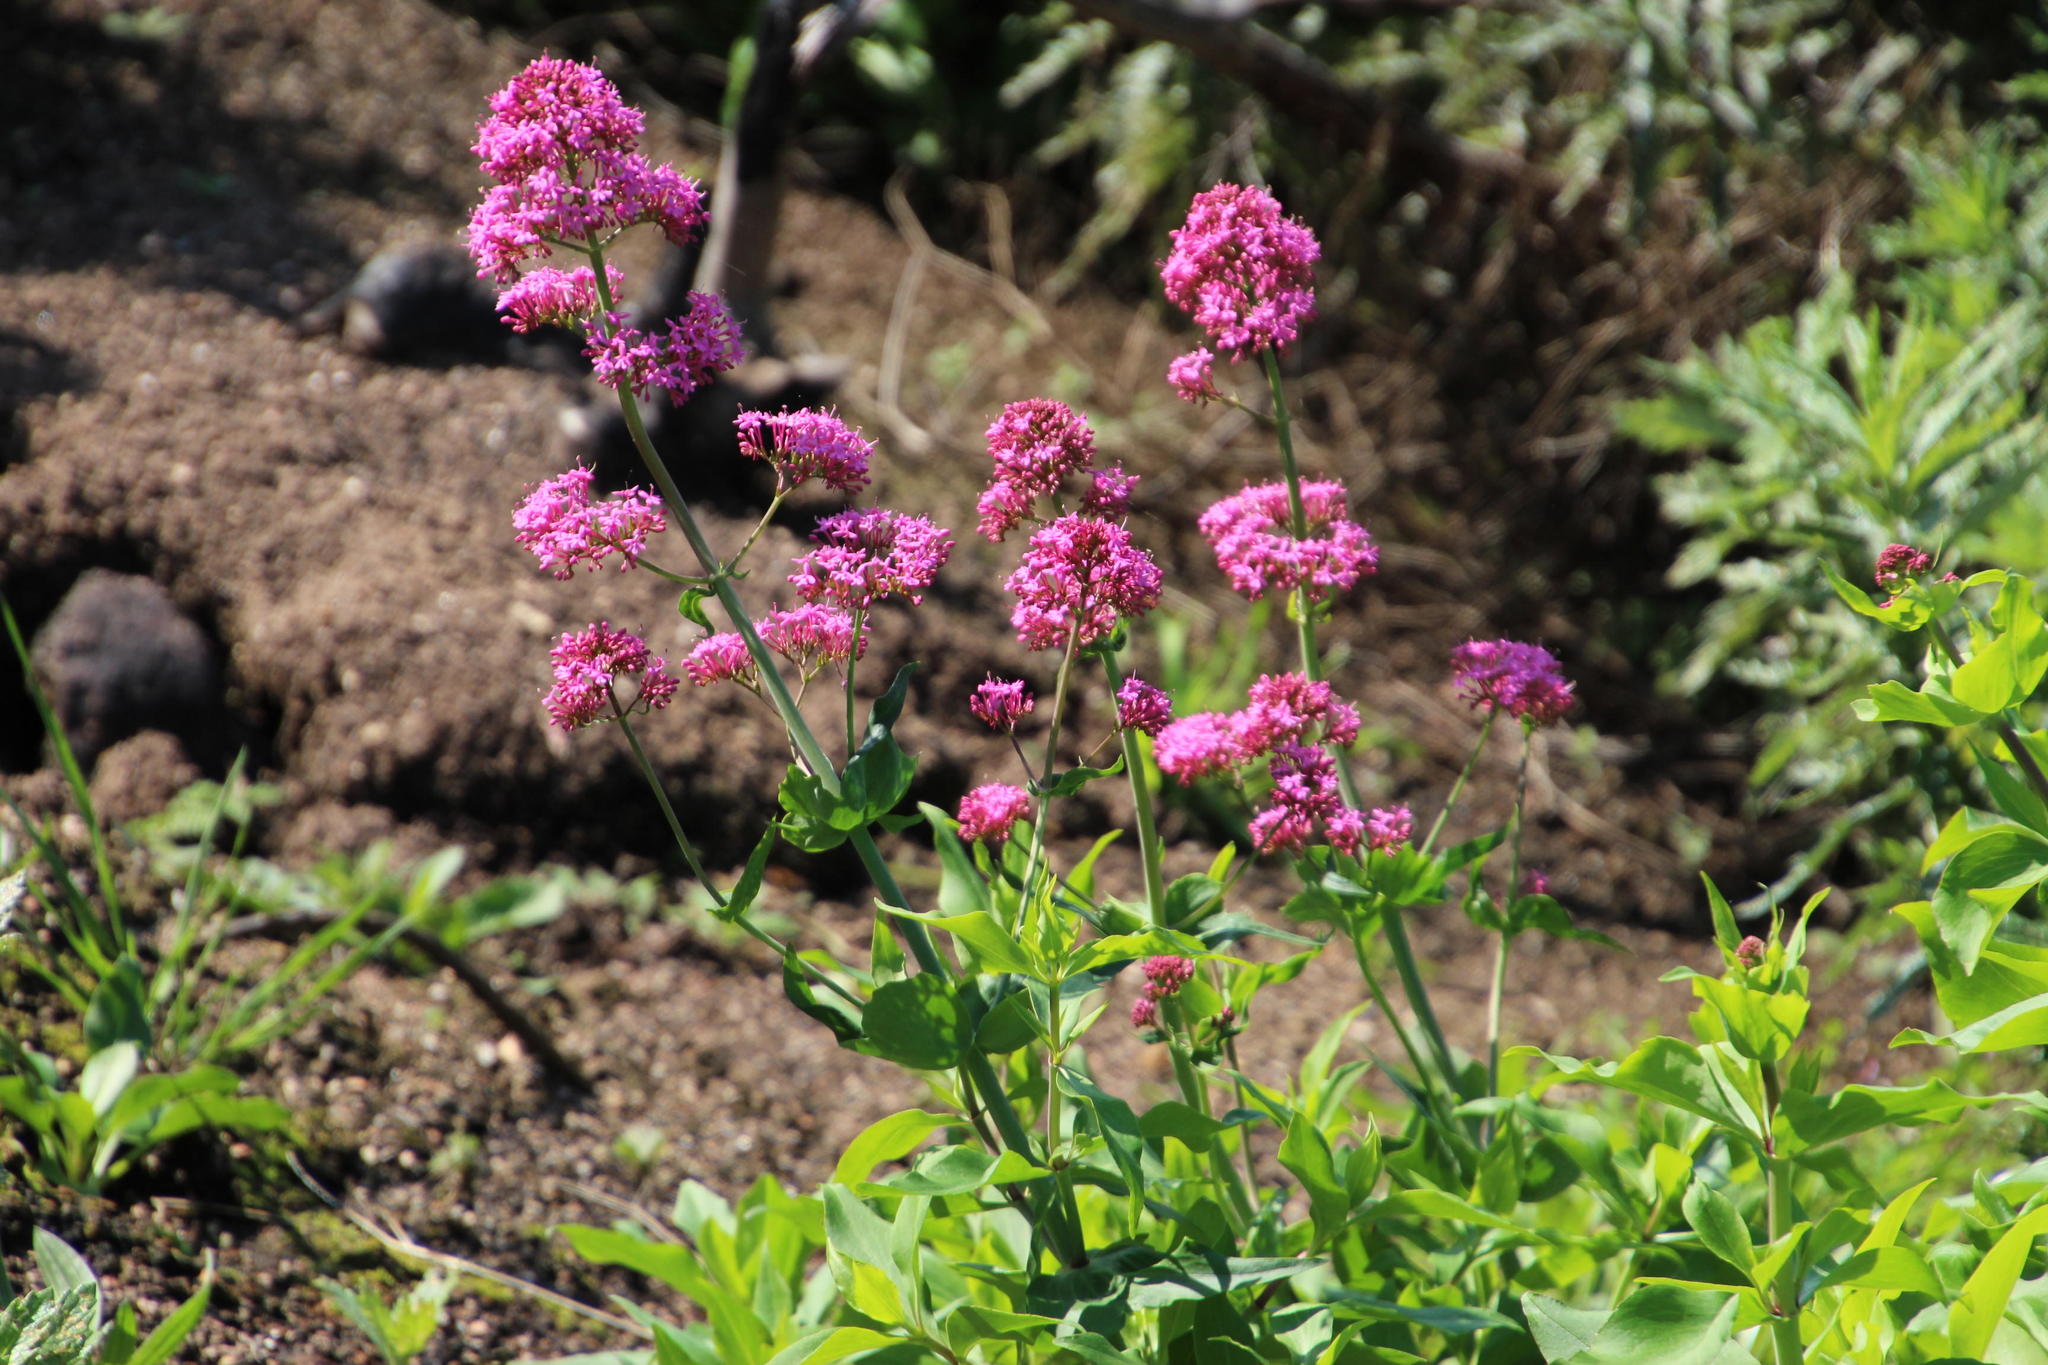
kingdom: Plantae
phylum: Tracheophyta
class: Magnoliopsida
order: Dipsacales
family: Caprifoliaceae
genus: Centranthus
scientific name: Centranthus ruber
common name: Red valerian
